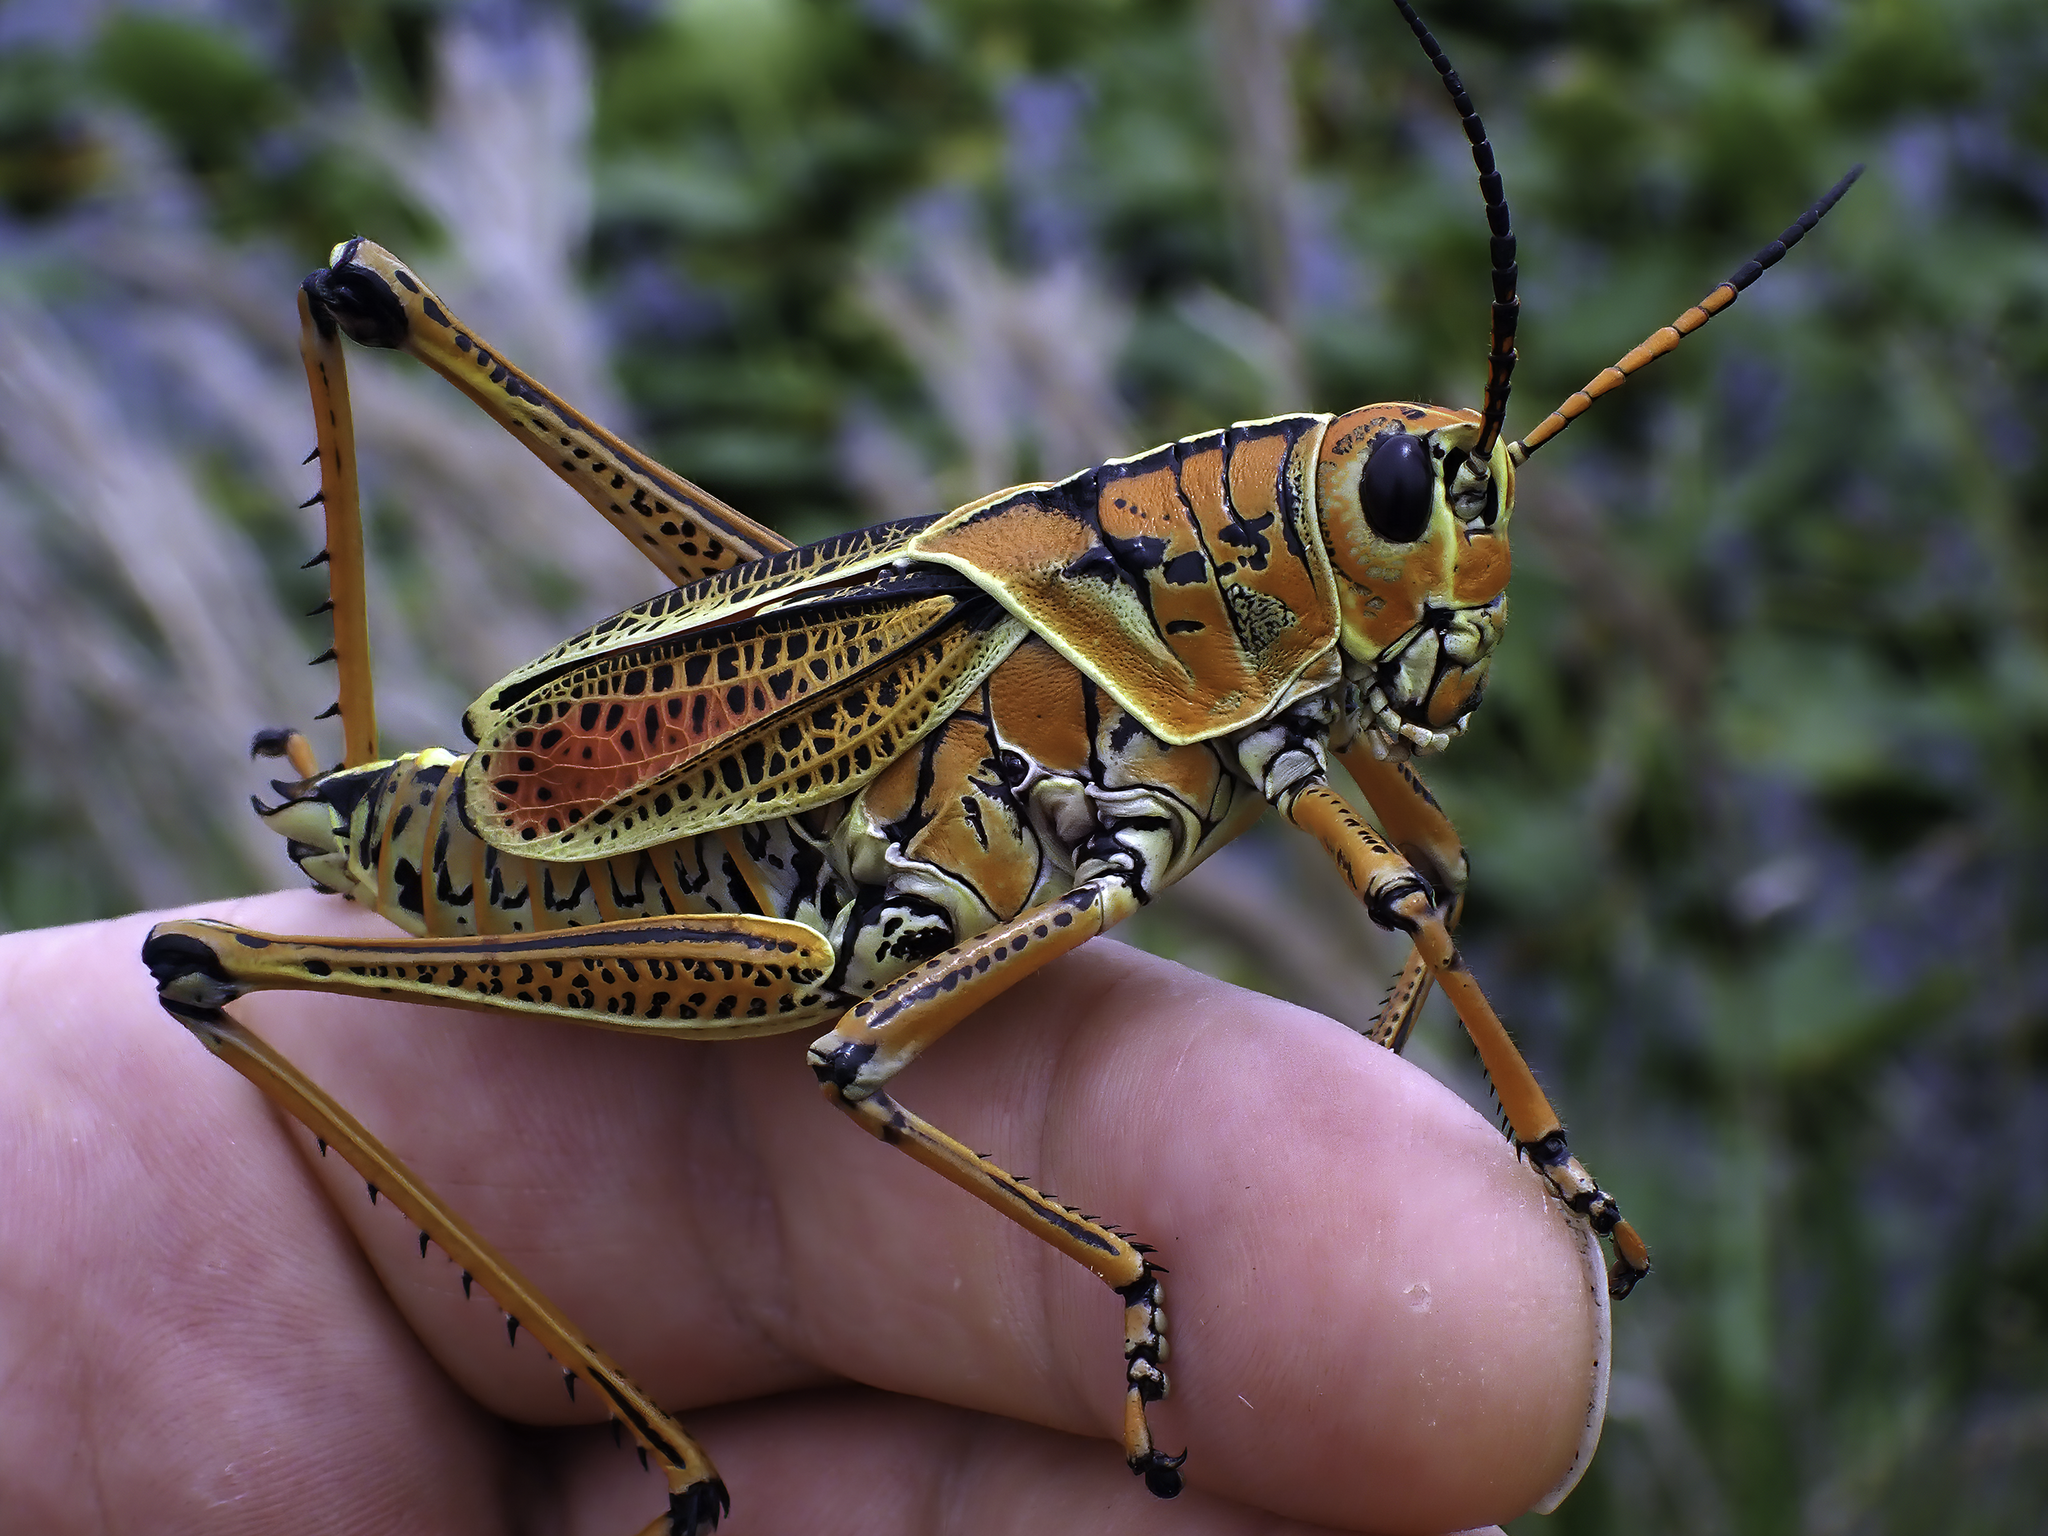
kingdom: Animalia
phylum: Arthropoda
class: Insecta
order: Orthoptera
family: Romaleidae
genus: Romalea
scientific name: Romalea microptera
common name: Eastern lubber grasshopper
